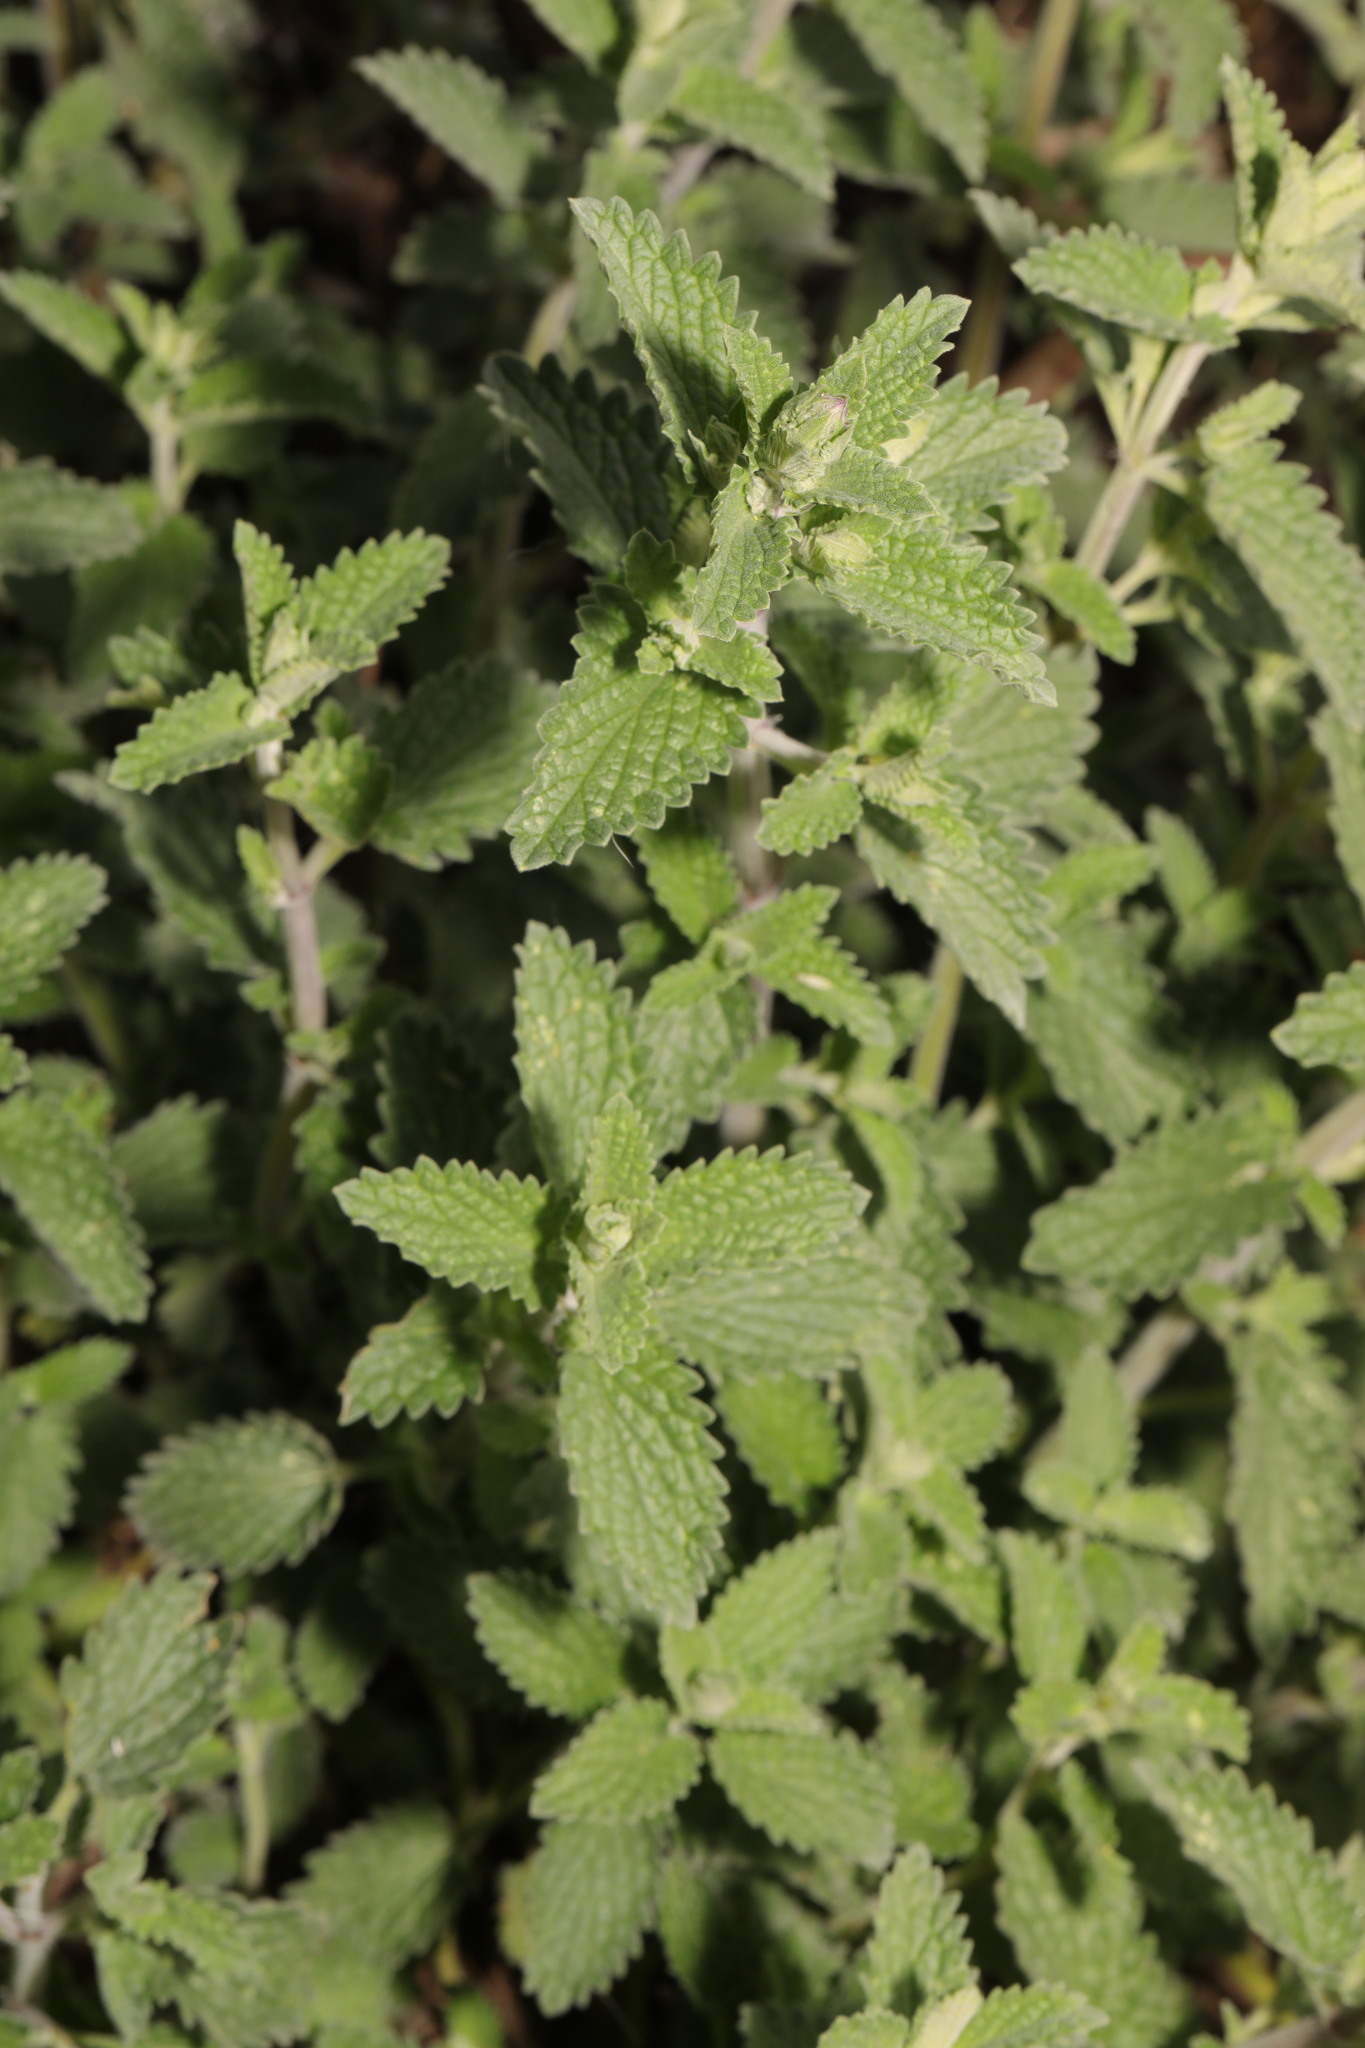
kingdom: Plantae
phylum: Tracheophyta
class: Magnoliopsida
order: Lamiales
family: Lamiaceae
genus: Nepeta
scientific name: Nepeta faassenii
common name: Catmint
